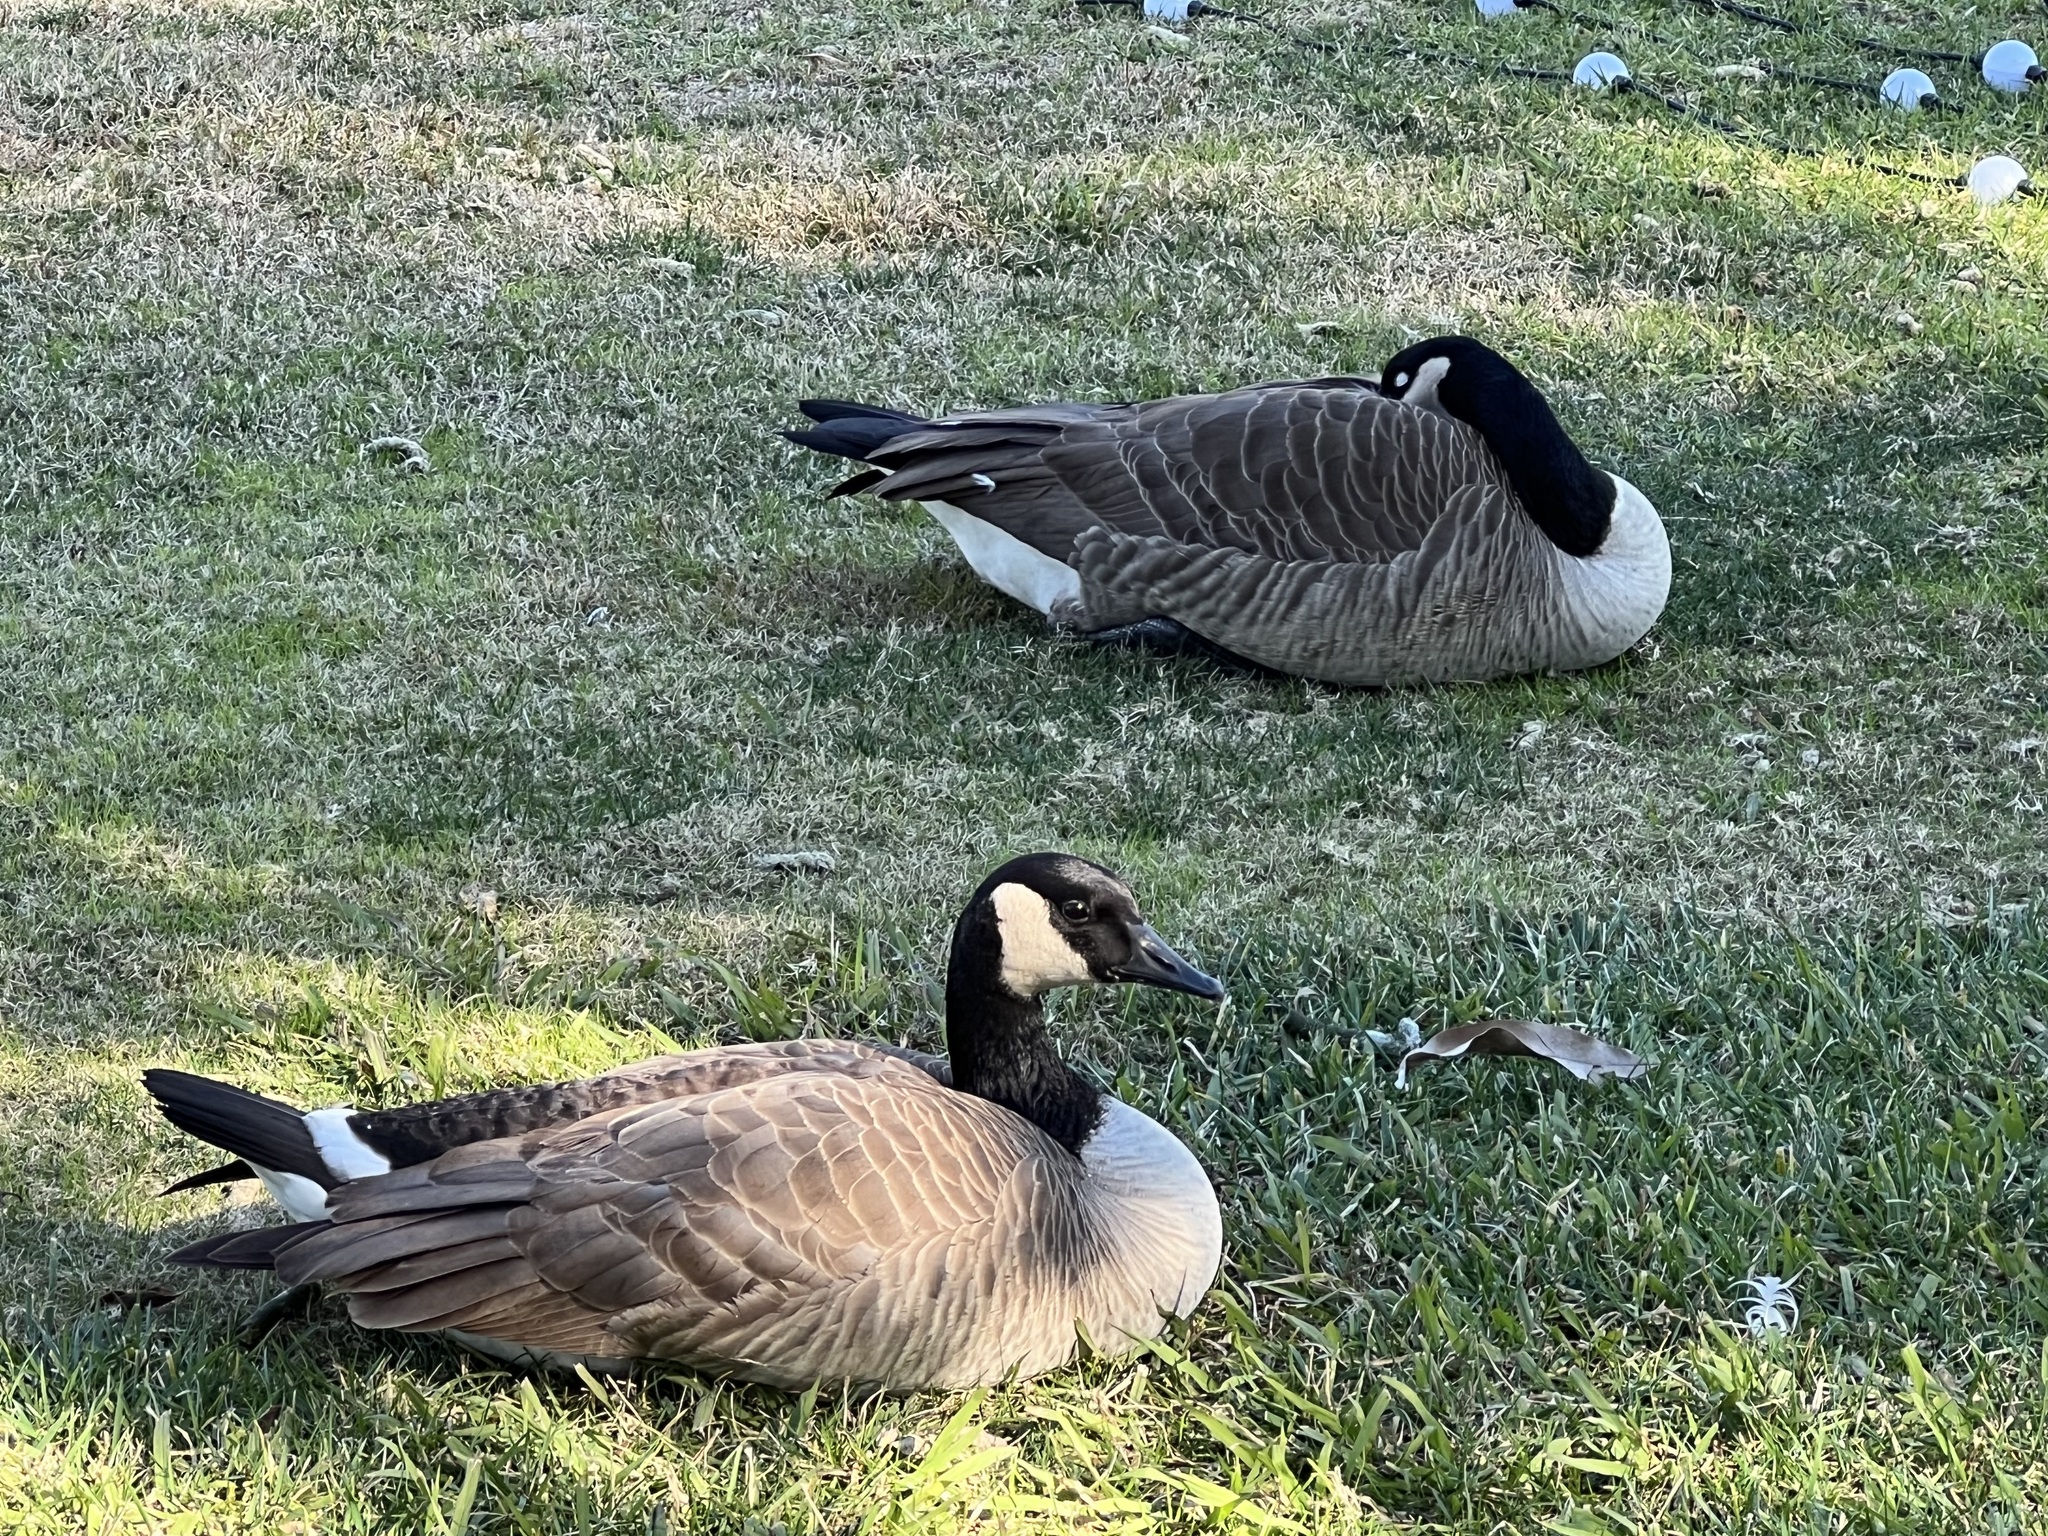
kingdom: Animalia
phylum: Chordata
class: Aves
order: Anseriformes
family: Anatidae
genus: Branta
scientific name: Branta canadensis
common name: Canada goose
